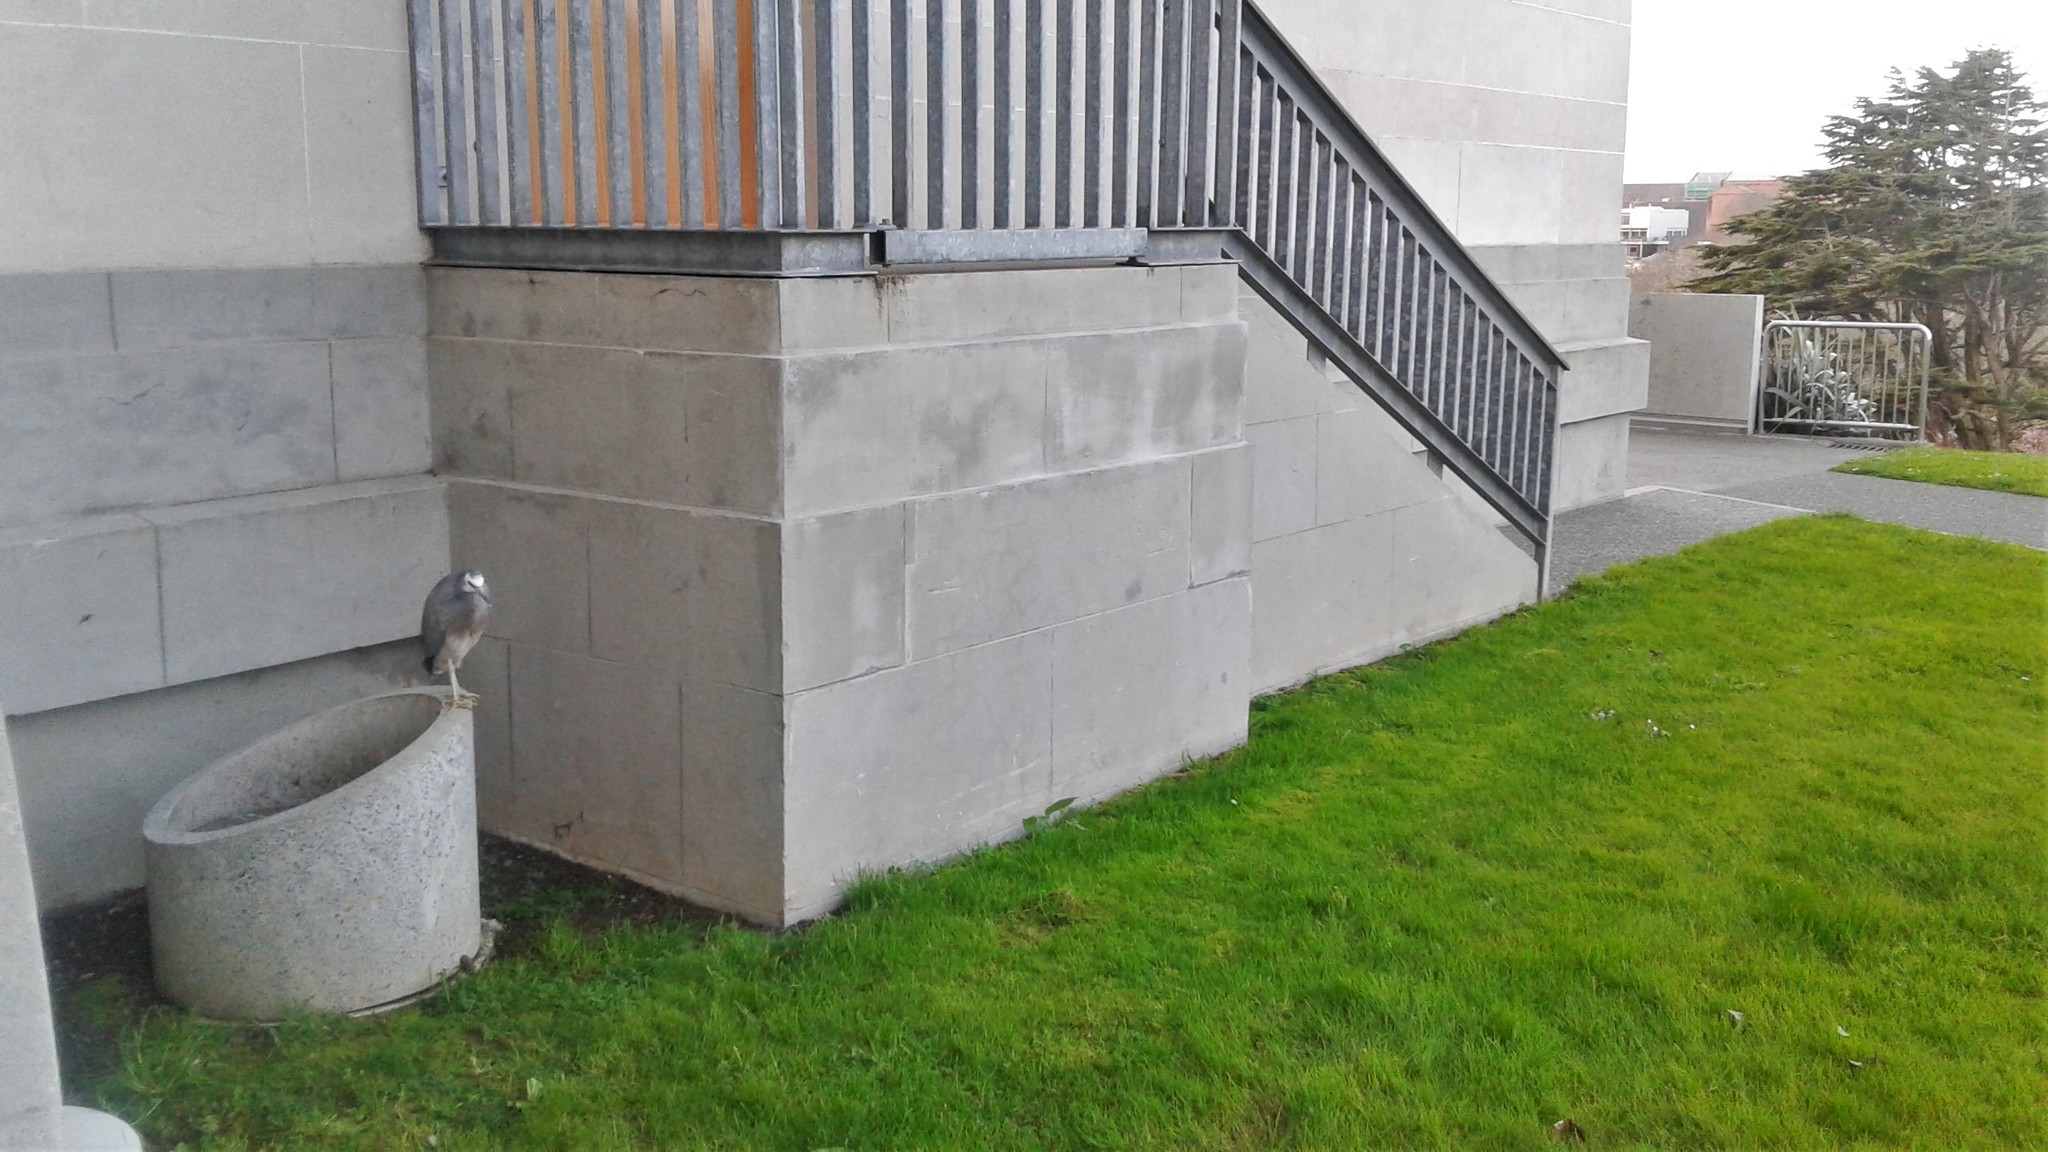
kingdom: Animalia
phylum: Chordata
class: Aves
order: Pelecaniformes
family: Ardeidae
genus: Egretta
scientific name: Egretta novaehollandiae
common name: White-faced heron
